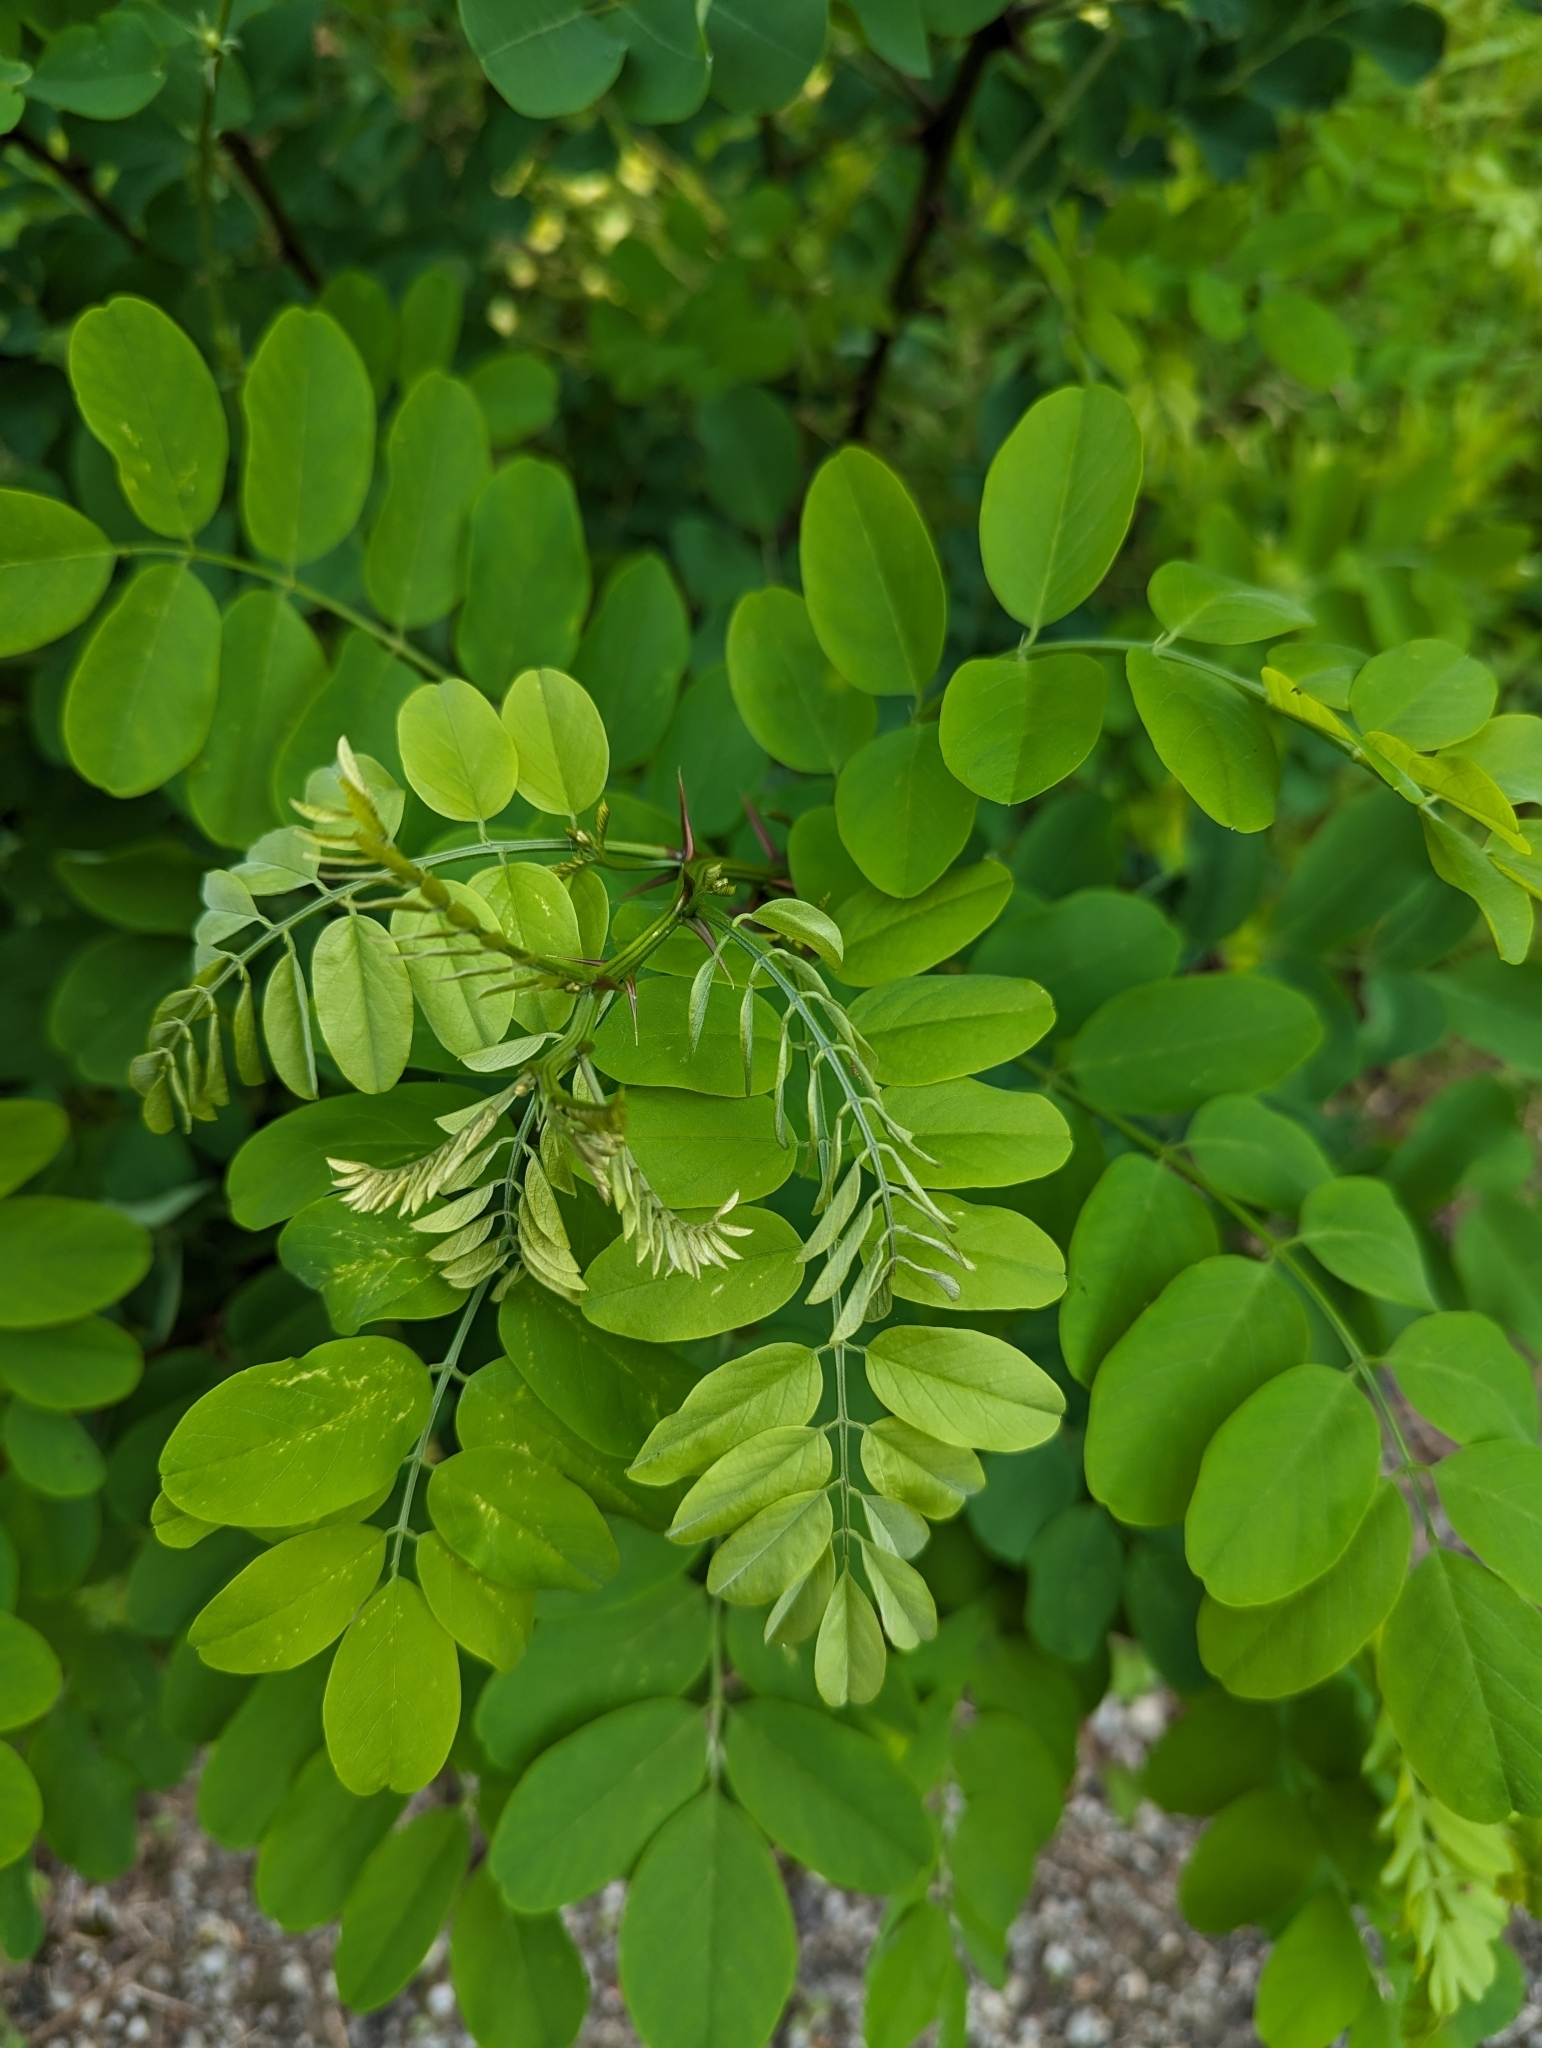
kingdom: Plantae
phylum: Tracheophyta
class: Magnoliopsida
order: Fabales
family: Fabaceae
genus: Robinia
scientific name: Robinia pseudoacacia
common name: Black locust
